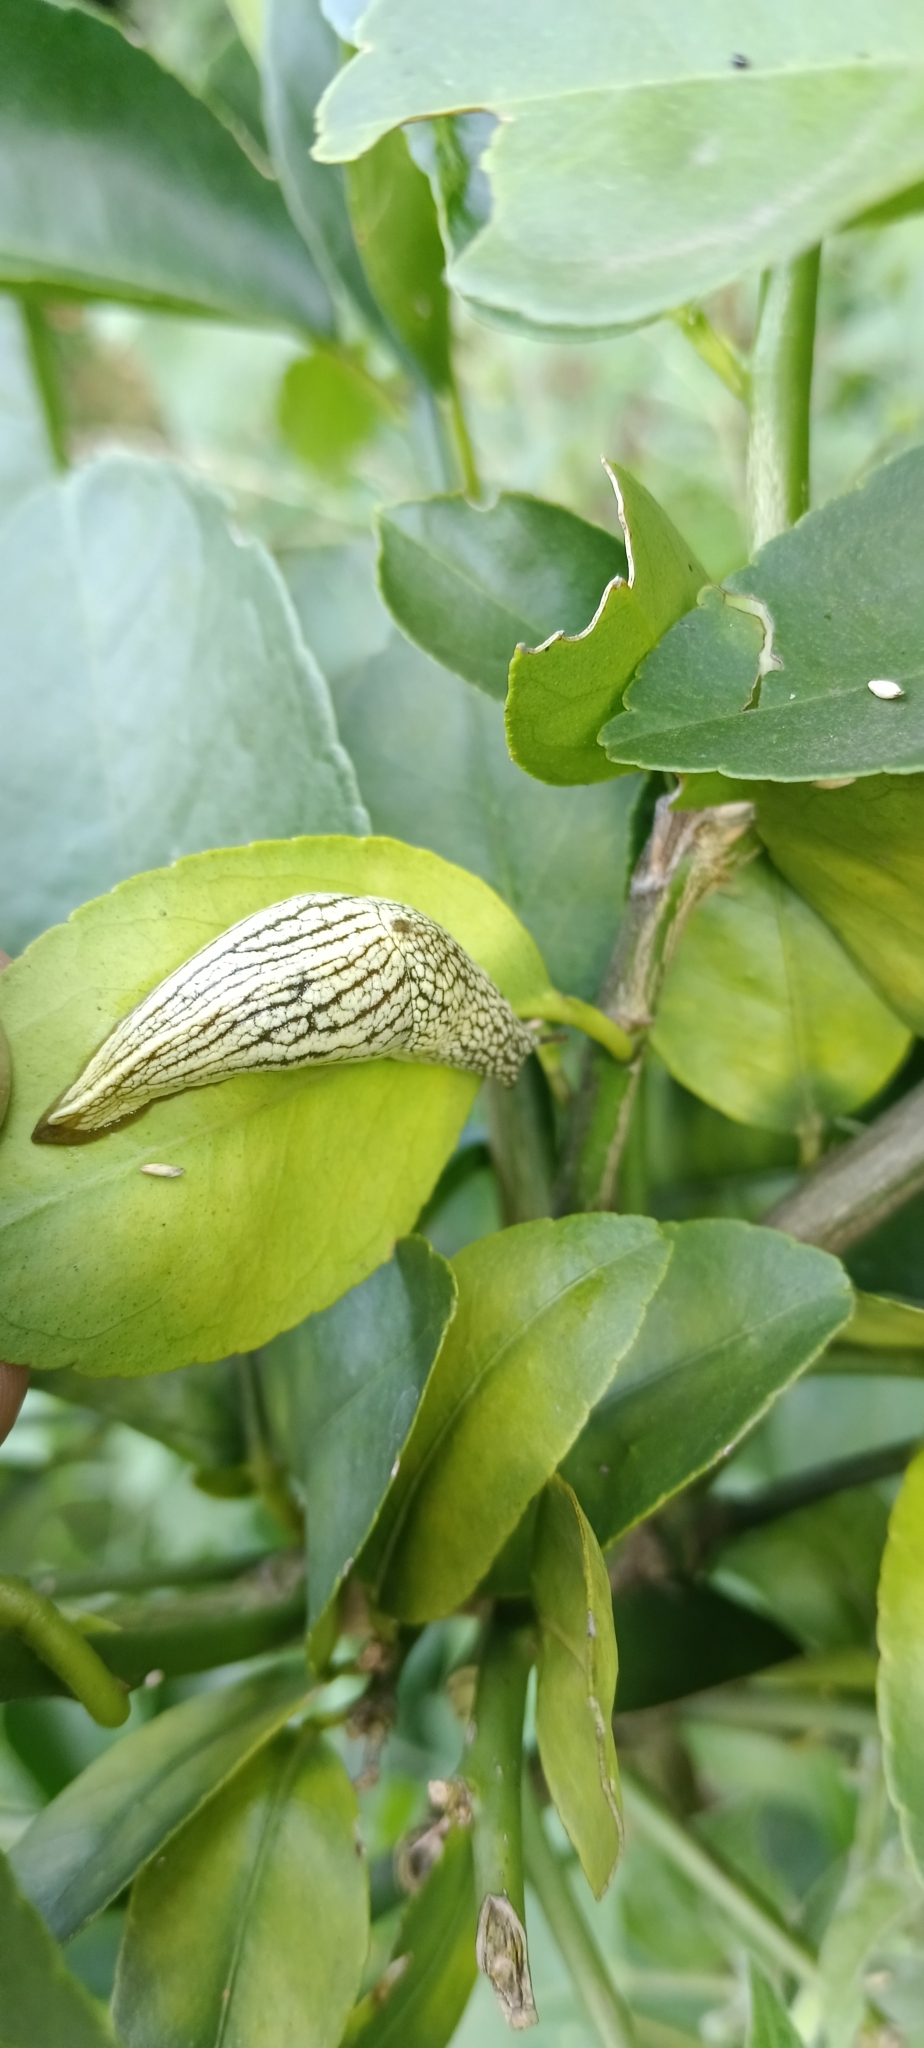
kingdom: Animalia
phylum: Mollusca
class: Gastropoda
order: Stylommatophora
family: Urocyclidae
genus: Elisolimax
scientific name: Elisolimax flavescens
